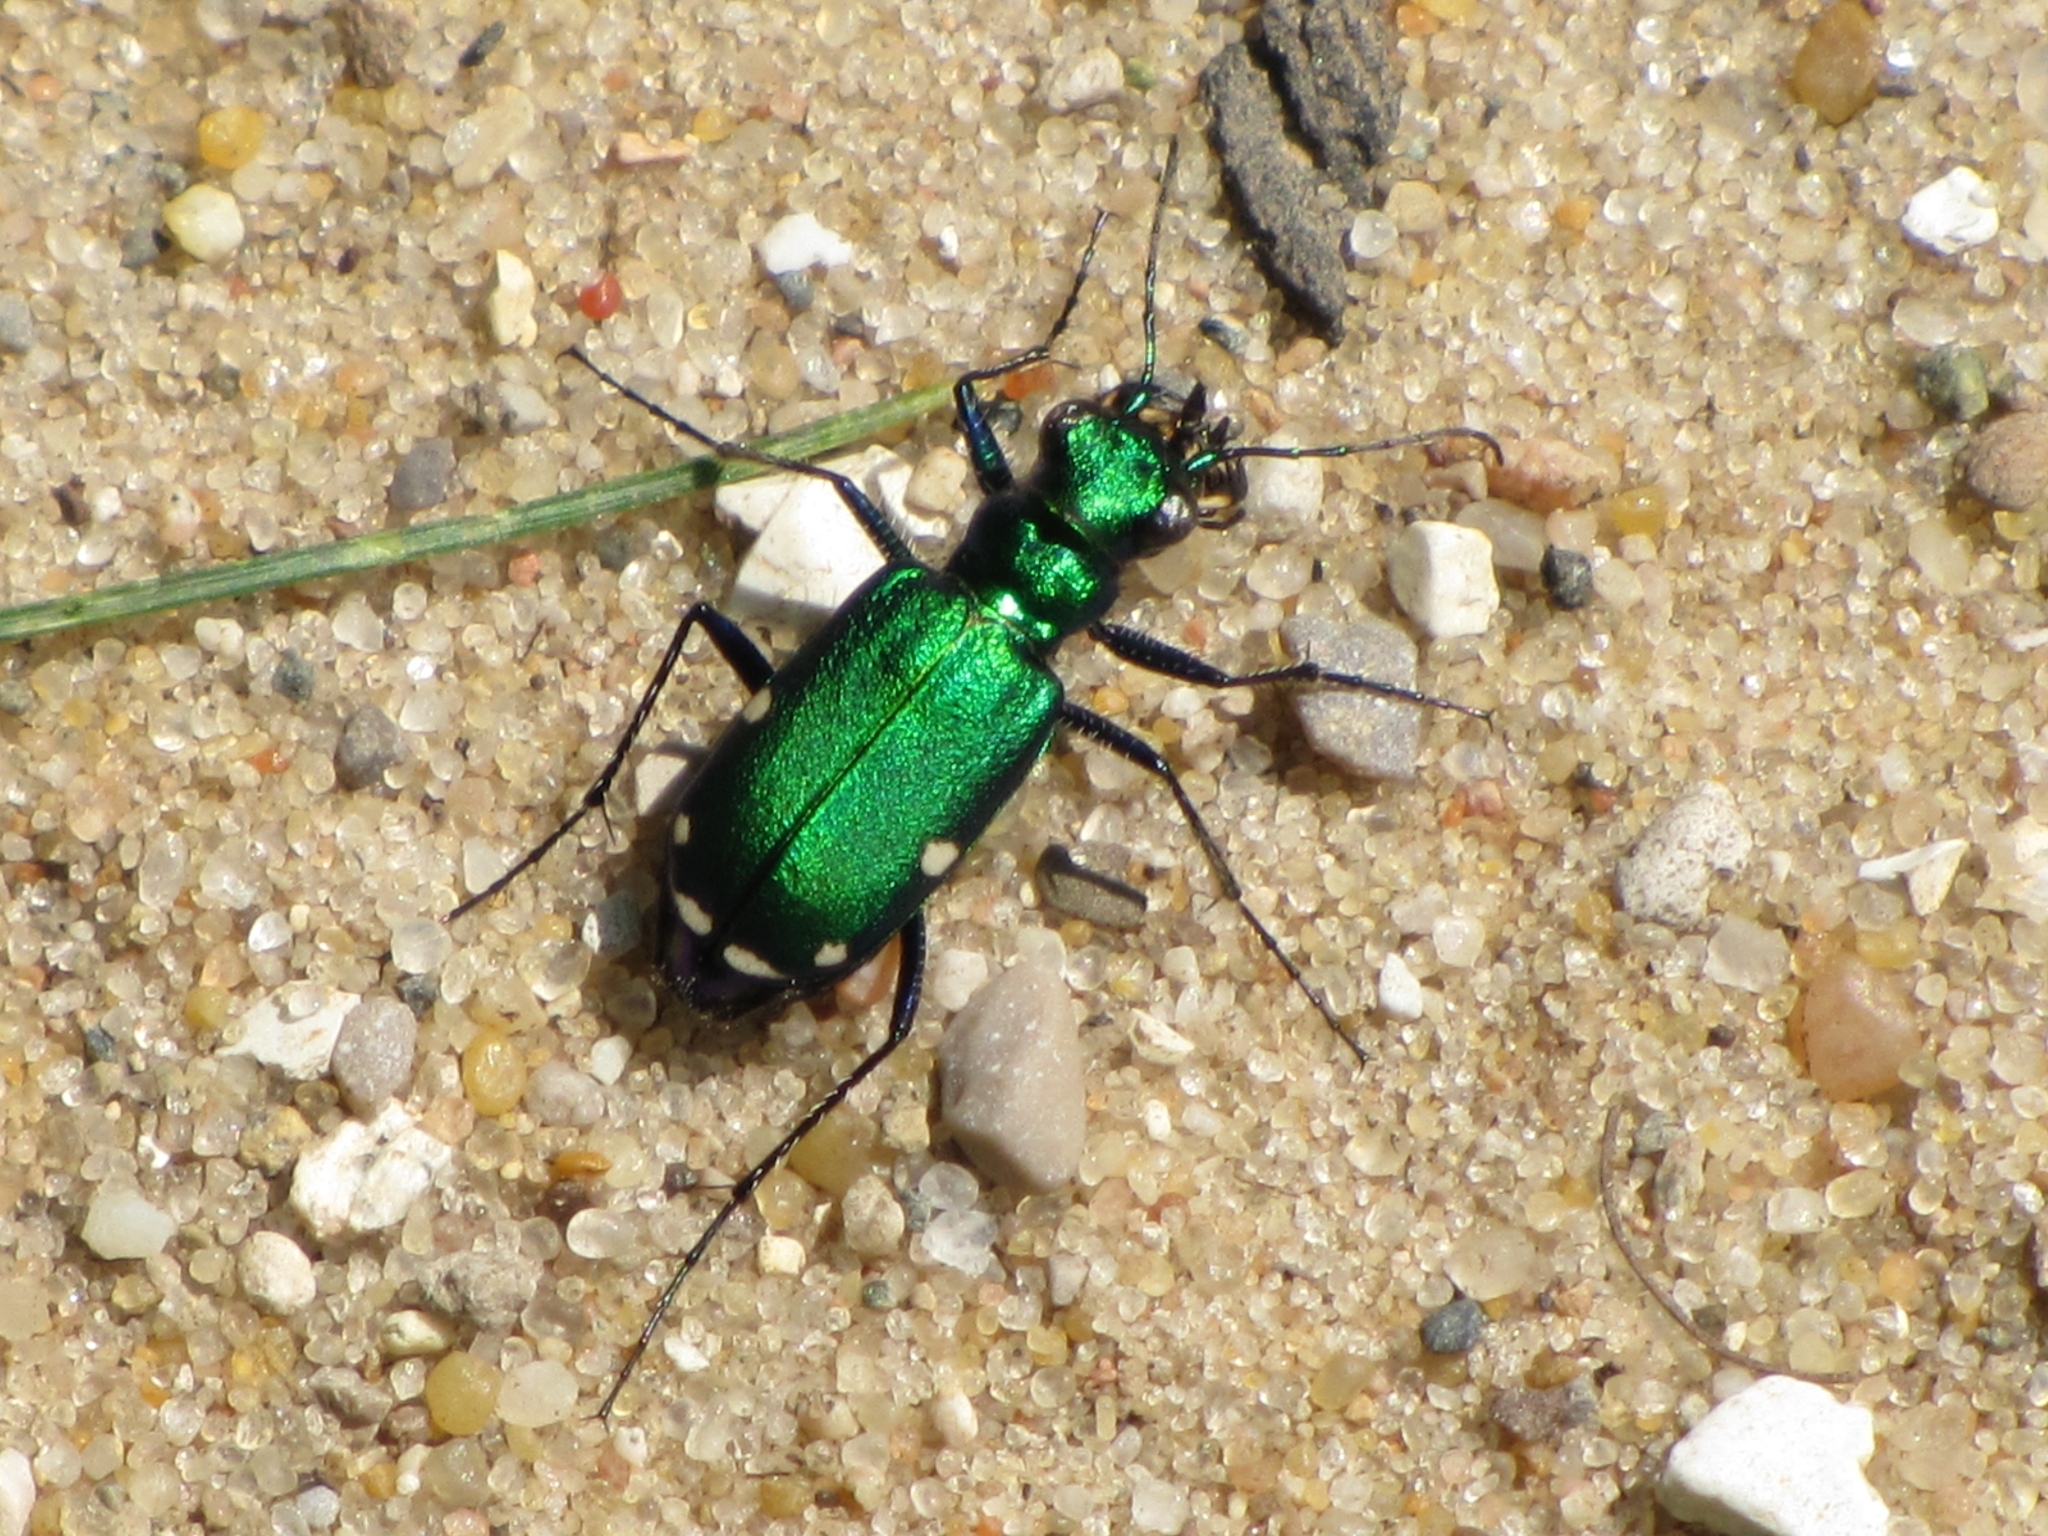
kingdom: Animalia
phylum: Arthropoda
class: Insecta
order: Coleoptera
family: Carabidae
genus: Cicindela
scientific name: Cicindela sexguttata
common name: Six-spotted tiger beetle
